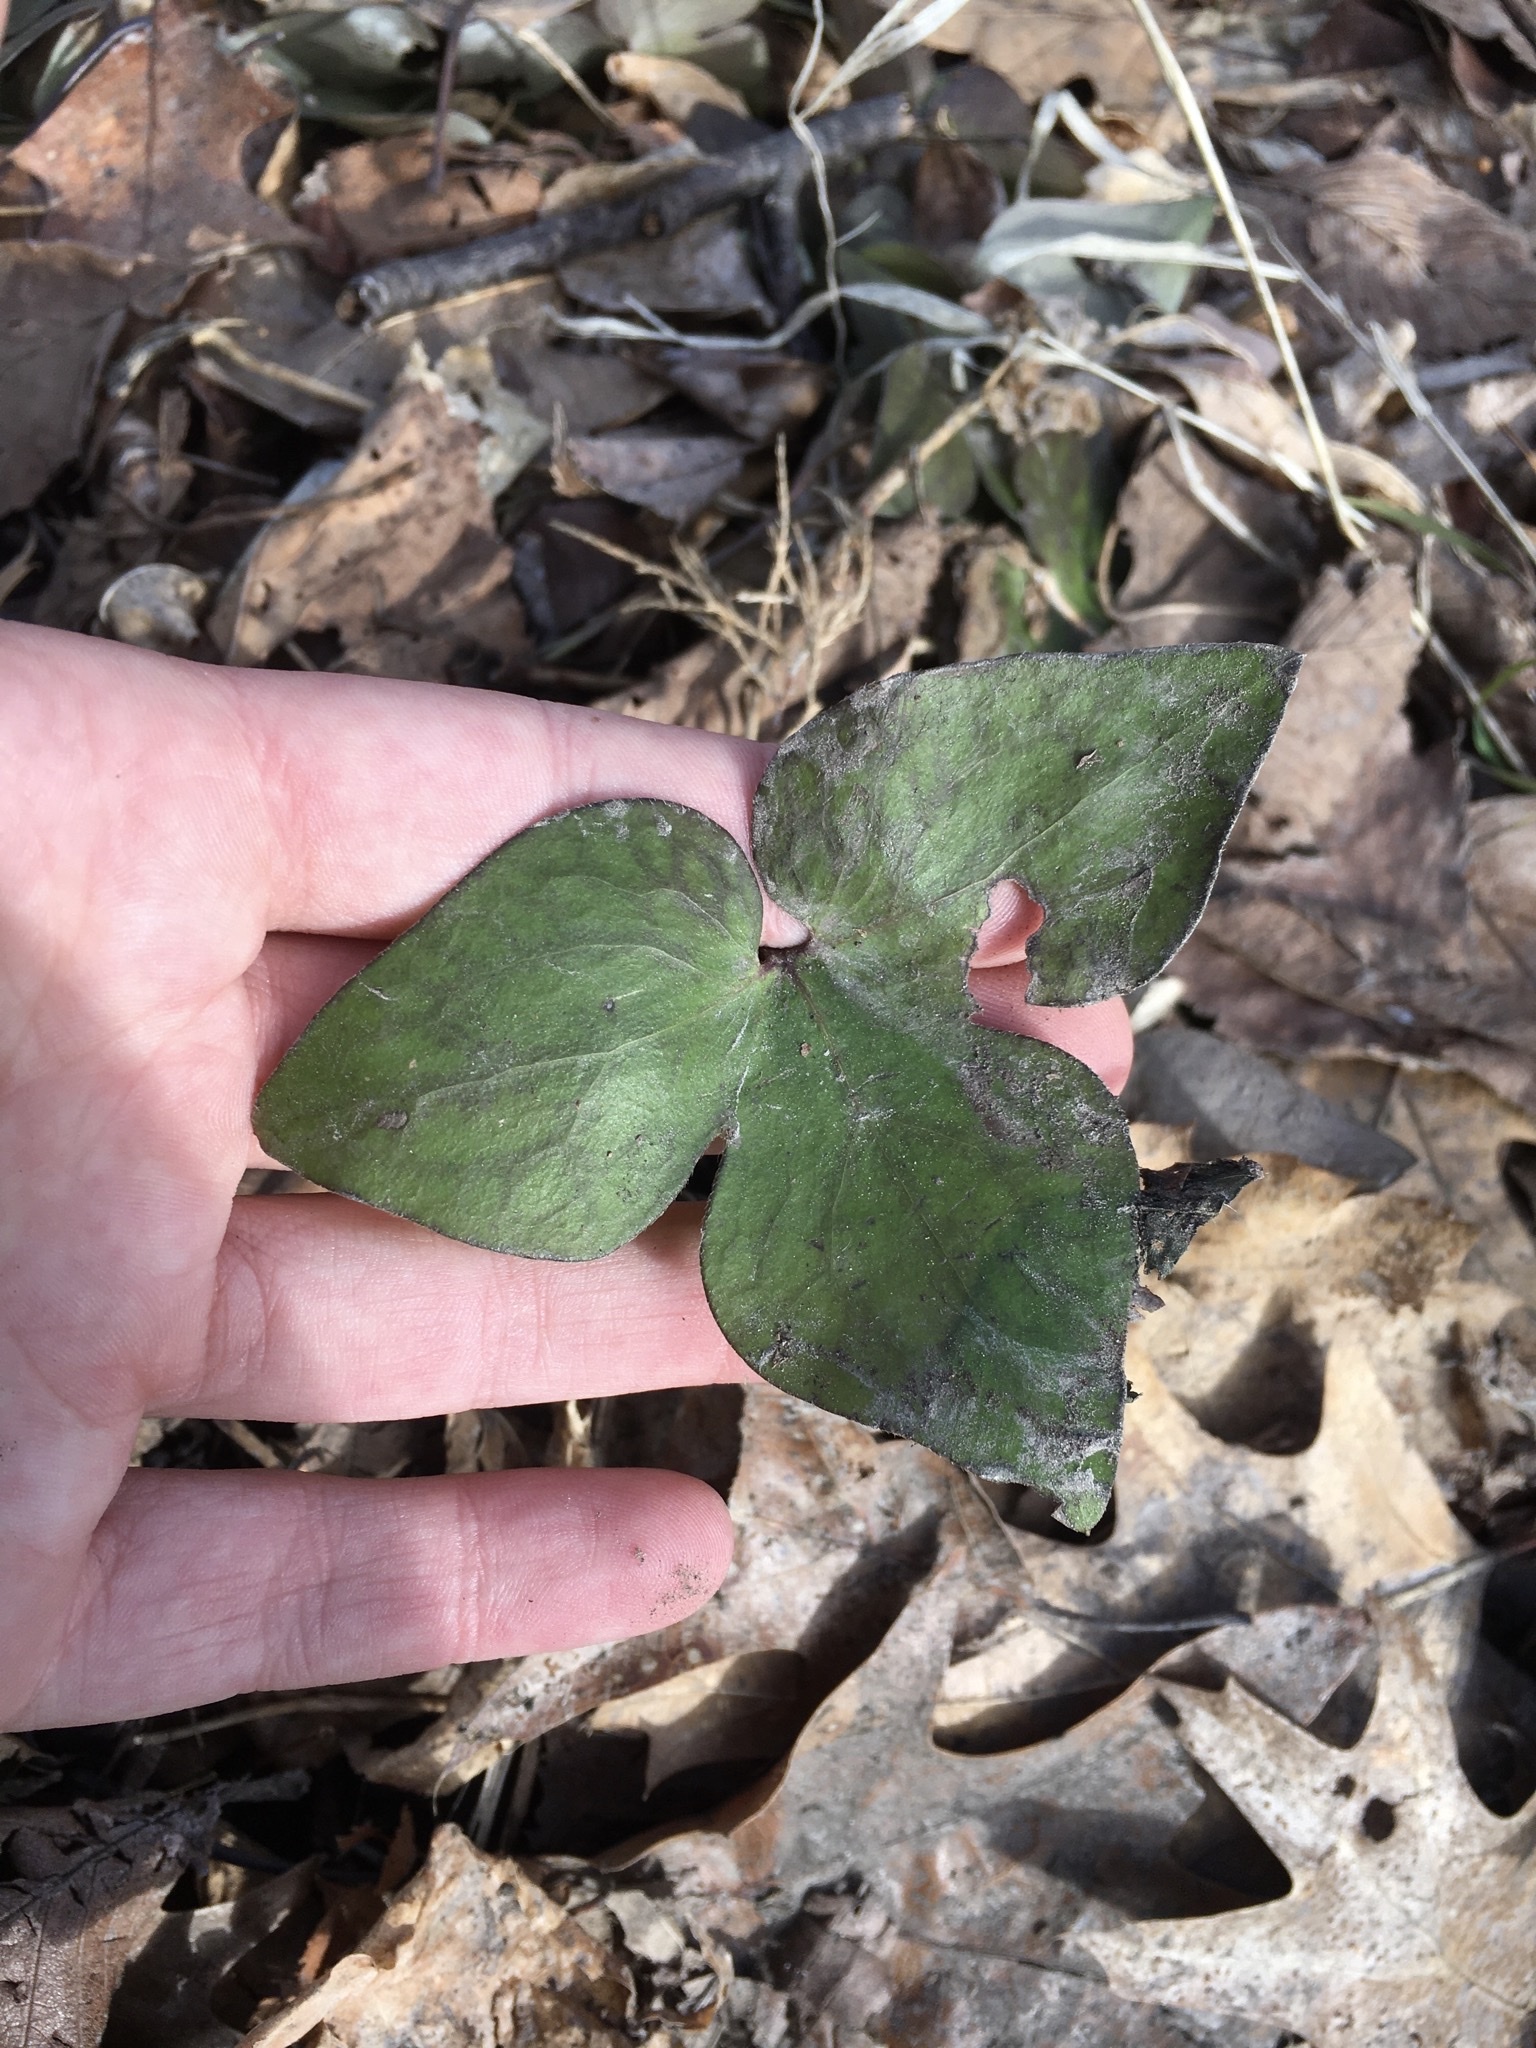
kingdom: Plantae
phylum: Tracheophyta
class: Magnoliopsida
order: Ranunculales
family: Ranunculaceae
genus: Hepatica
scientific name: Hepatica acutiloba
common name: Sharp-lobed hepatica
